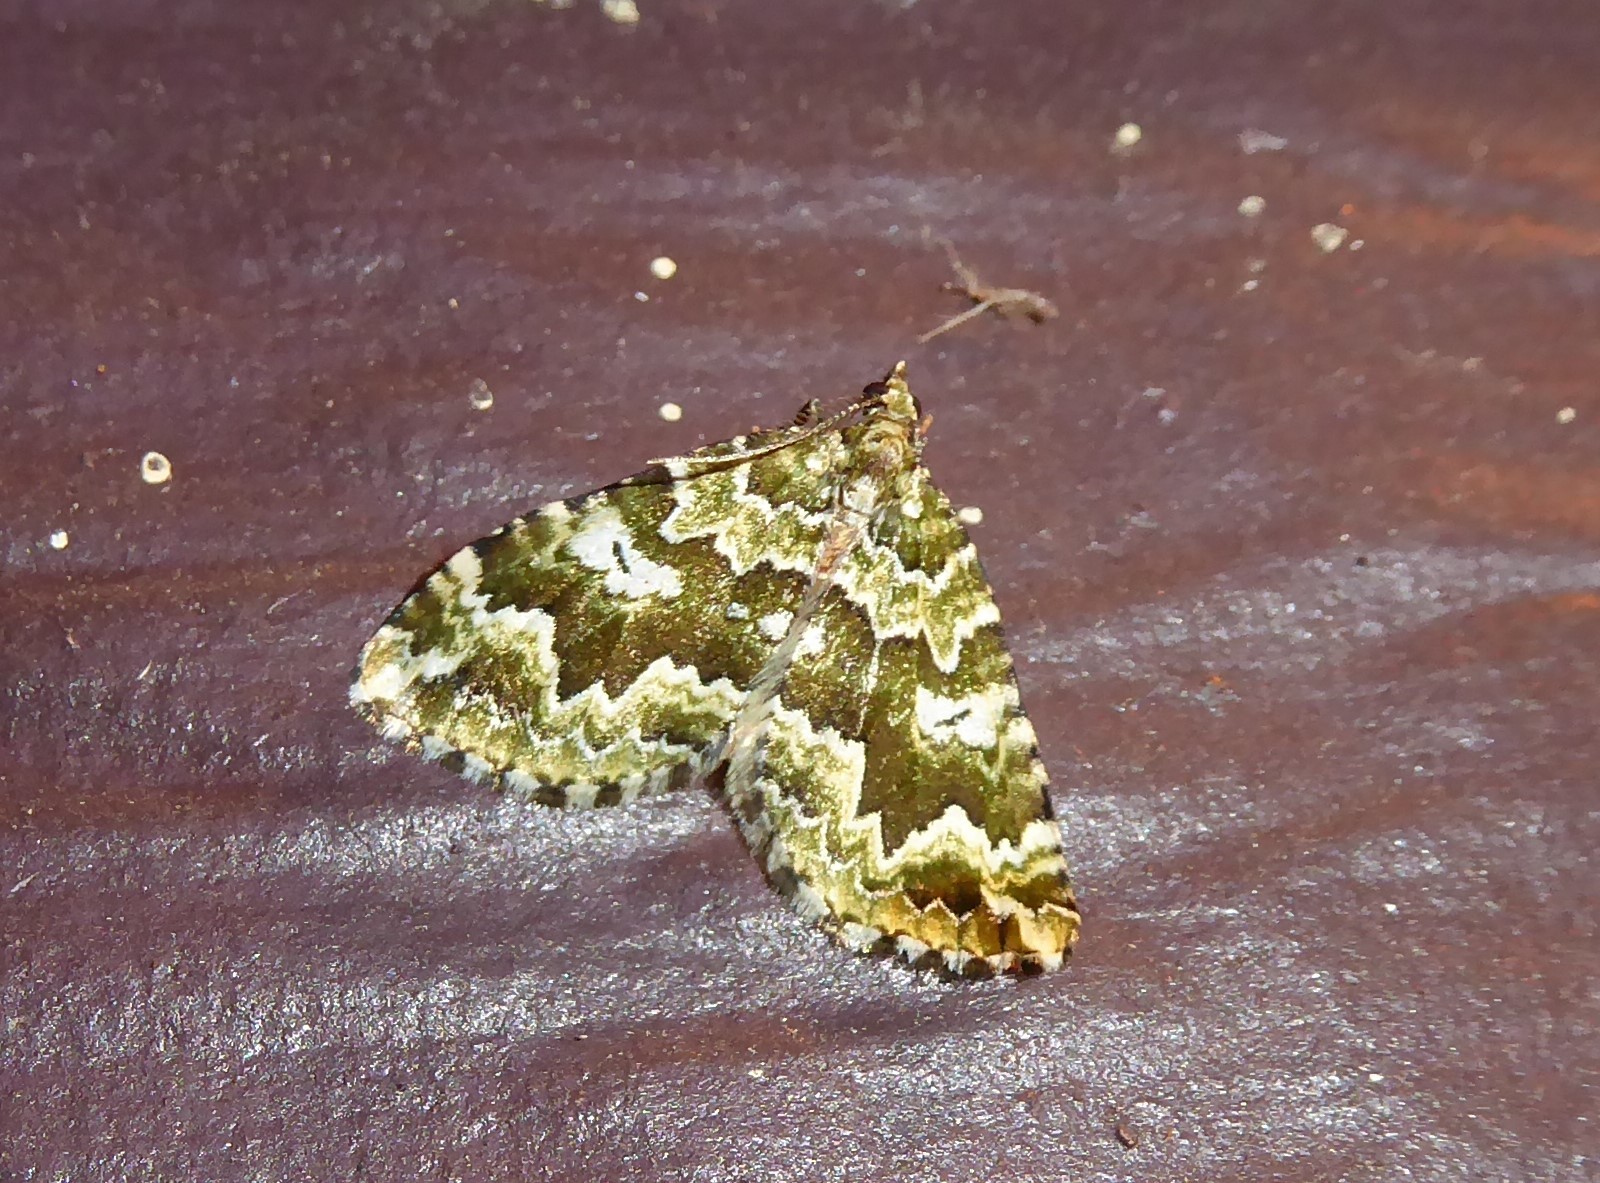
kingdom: Animalia
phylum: Arthropoda
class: Insecta
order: Lepidoptera
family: Geometridae
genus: Asaphodes
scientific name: Asaphodes beata
